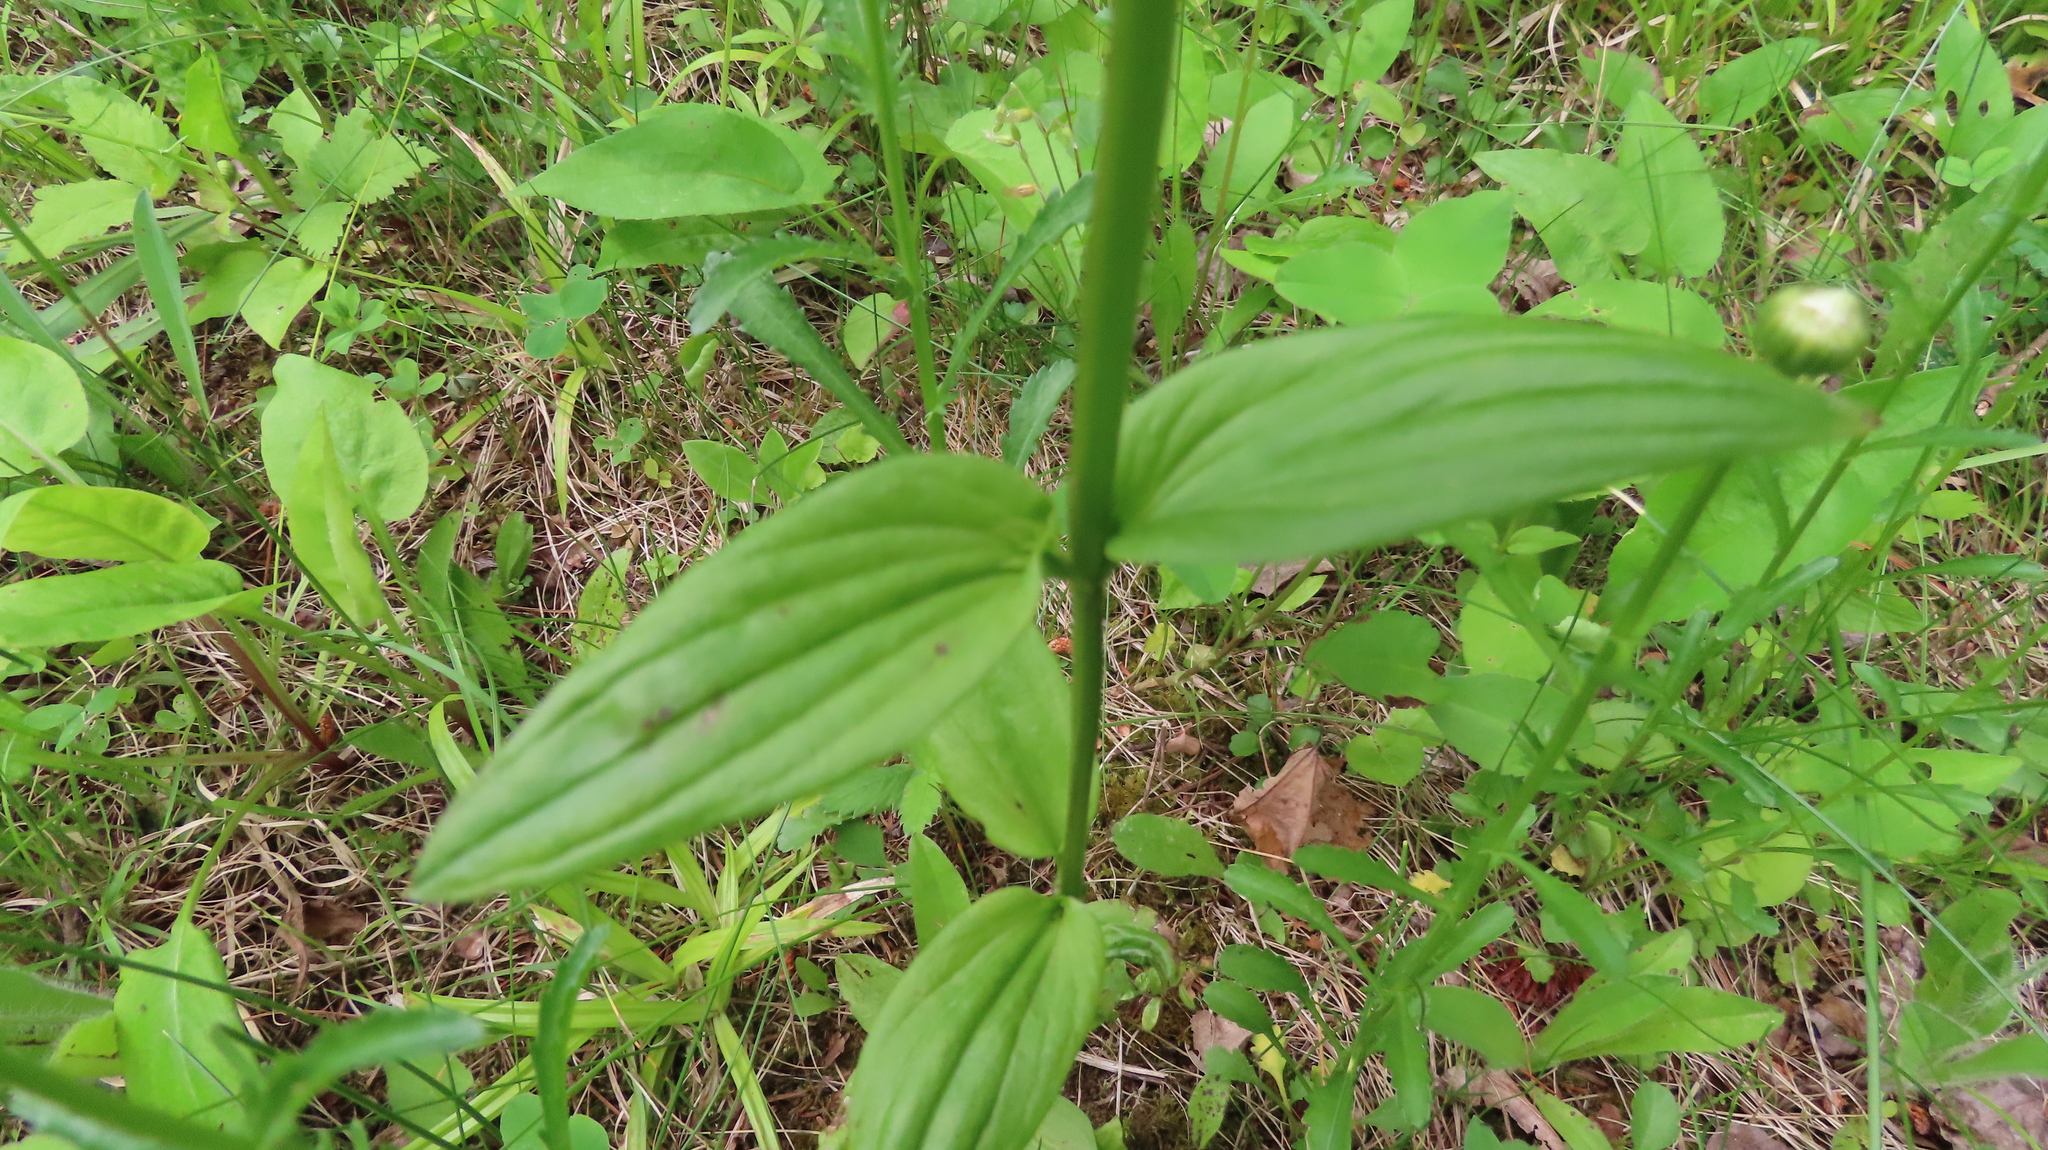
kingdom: Plantae
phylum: Tracheophyta
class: Magnoliopsida
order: Gentianales
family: Gentianaceae
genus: Halenia
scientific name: Halenia deflexa
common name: American spurred gentian
